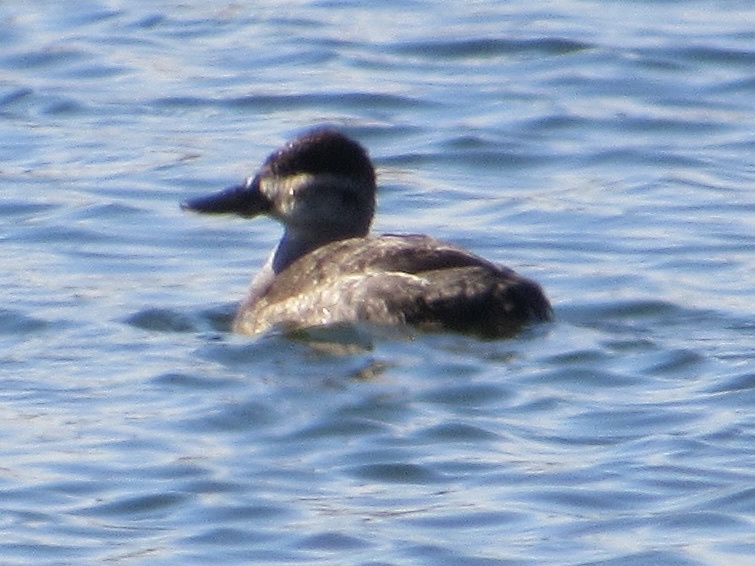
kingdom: Animalia
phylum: Chordata
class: Aves
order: Anseriformes
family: Anatidae
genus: Oxyura
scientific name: Oxyura jamaicensis
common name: Ruddy duck
